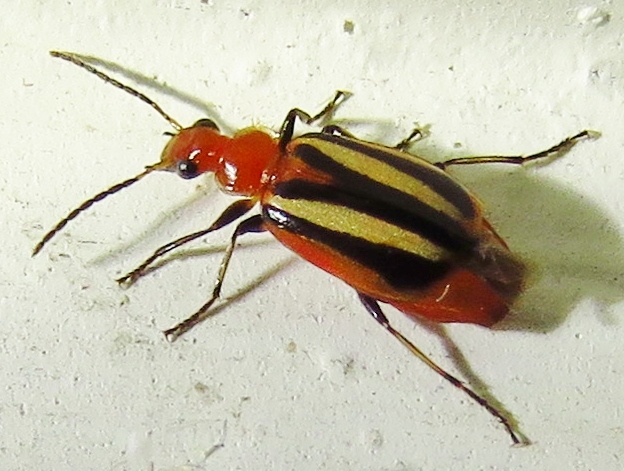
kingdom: Animalia
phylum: Arthropoda
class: Insecta
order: Coleoptera
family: Carabidae
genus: Lebia
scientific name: Lebia vittata
